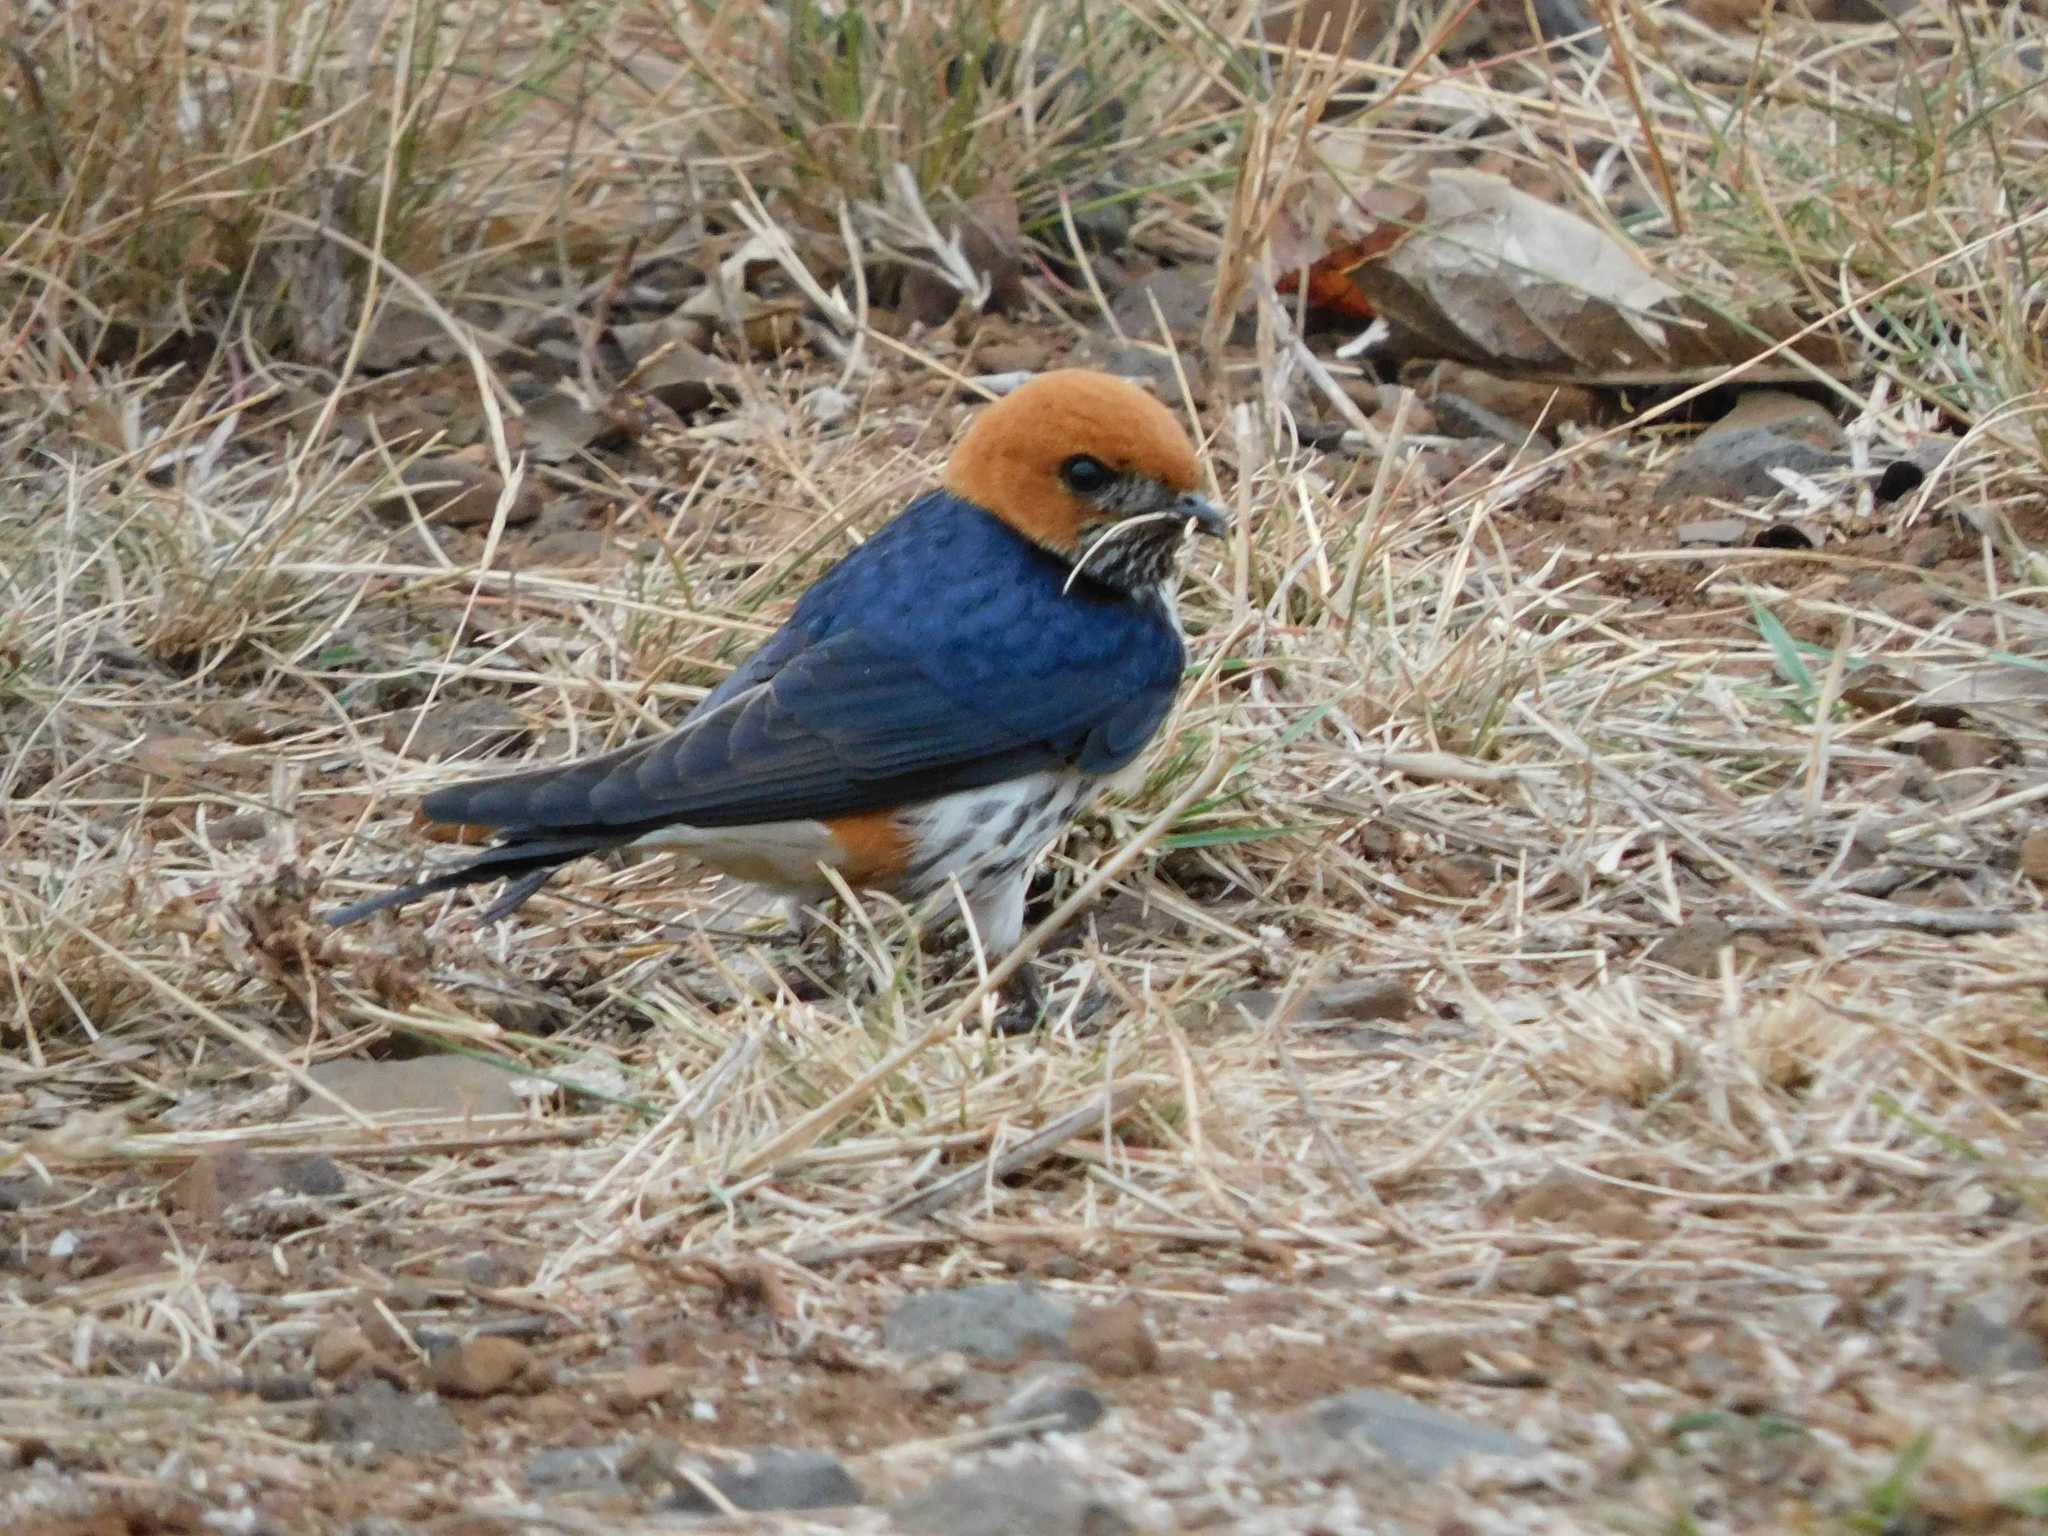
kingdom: Animalia
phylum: Chordata
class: Aves
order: Passeriformes
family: Hirundinidae
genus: Cecropis
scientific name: Cecropis abyssinica
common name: Lesser striped-swallow
